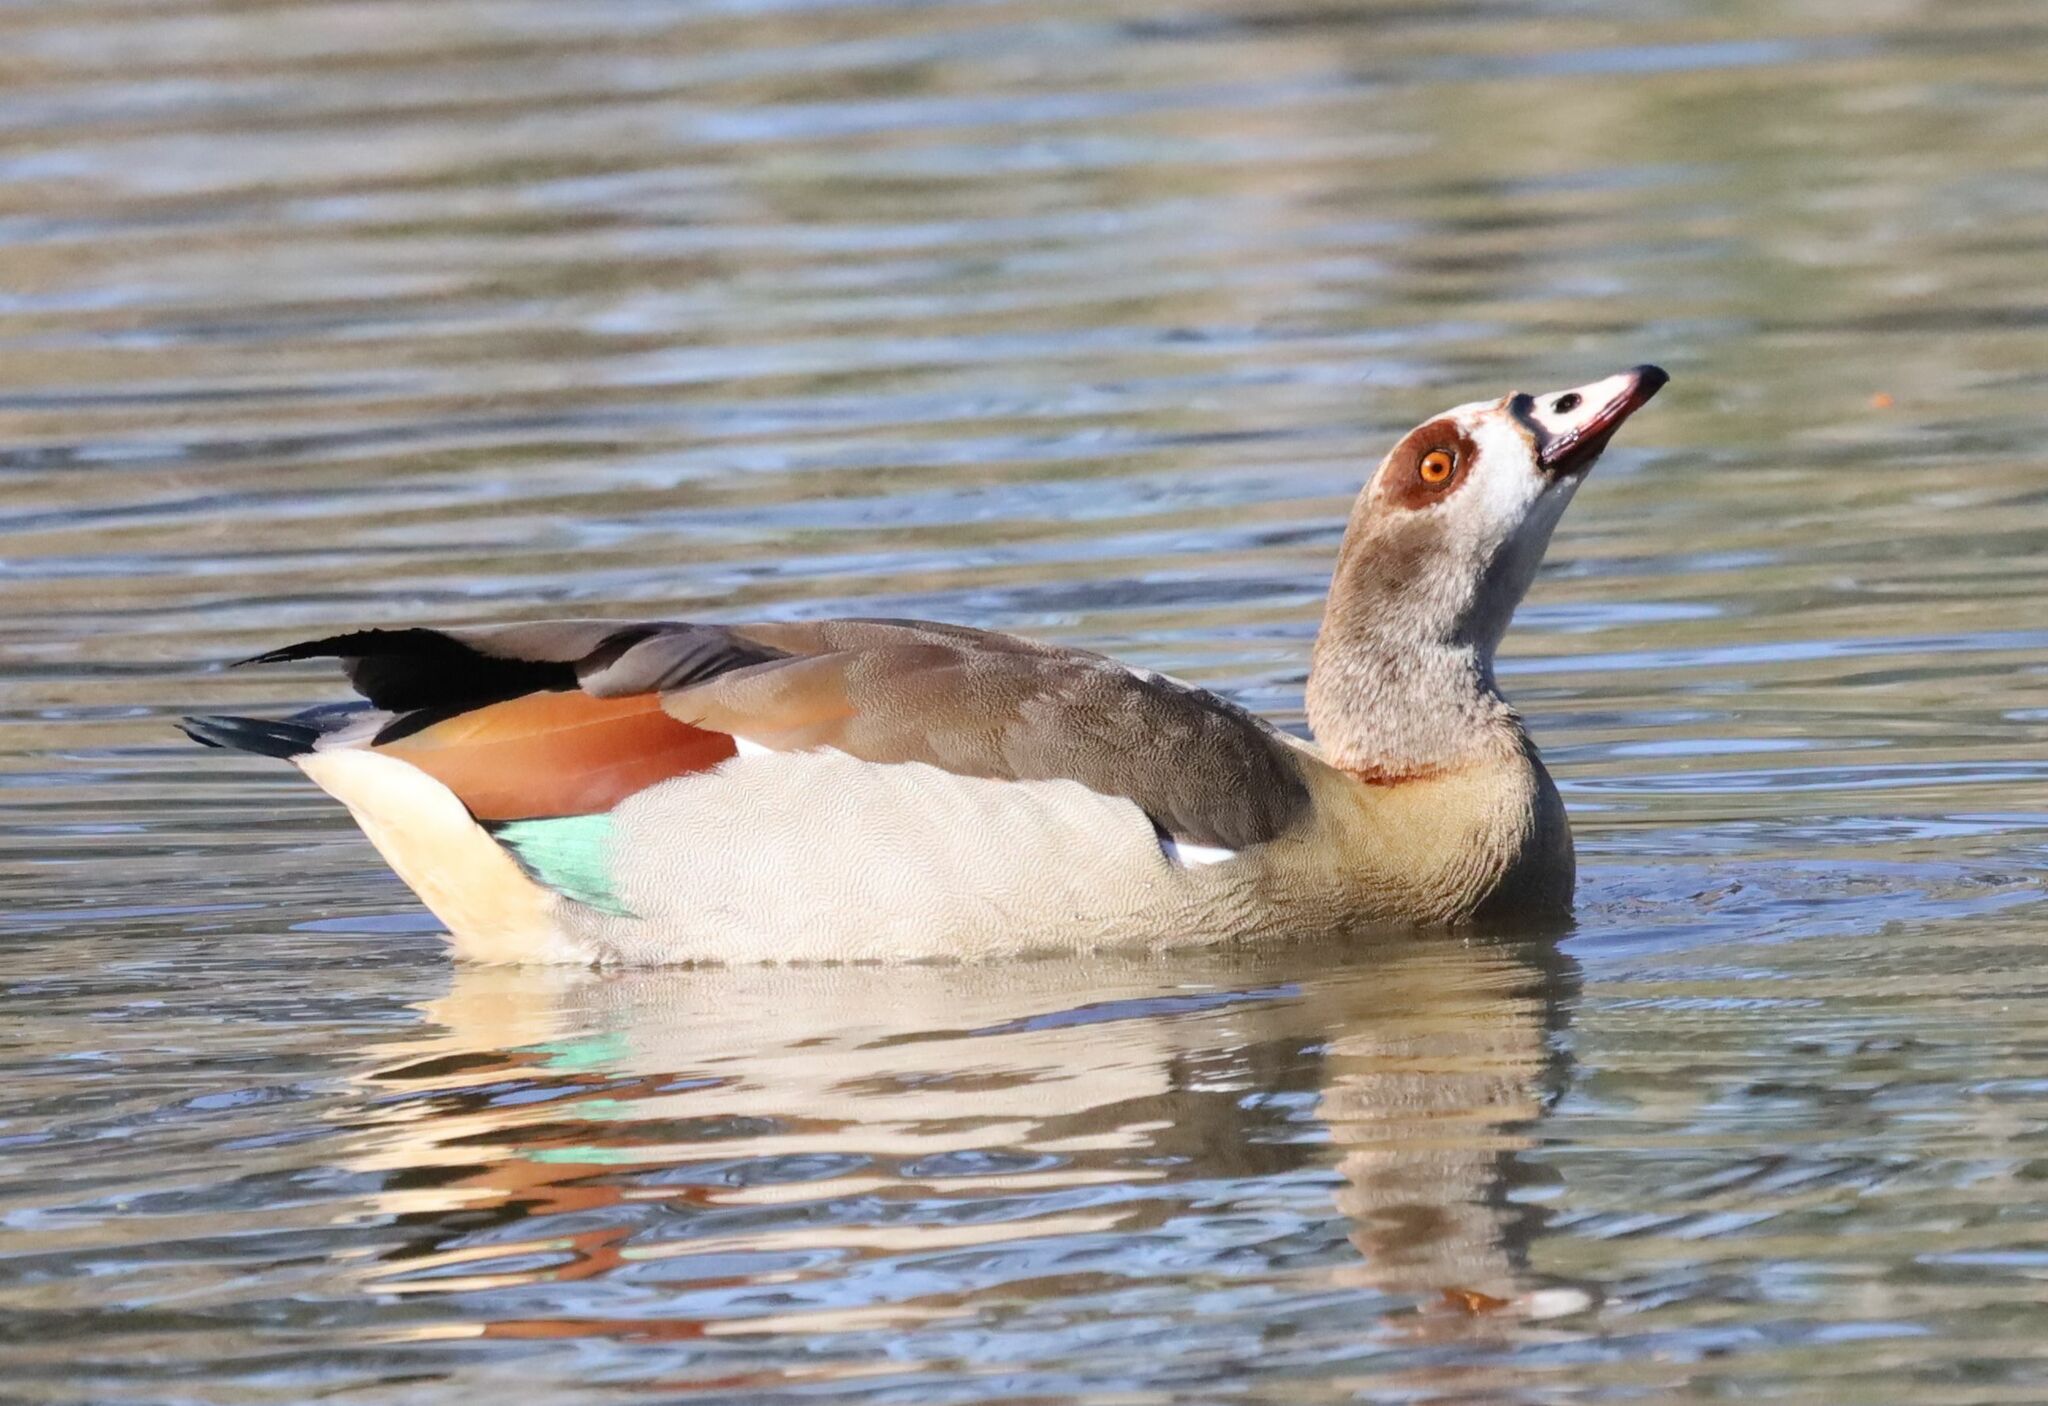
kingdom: Animalia
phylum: Chordata
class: Aves
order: Anseriformes
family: Anatidae
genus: Alopochen
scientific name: Alopochen aegyptiaca
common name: Egyptian goose
